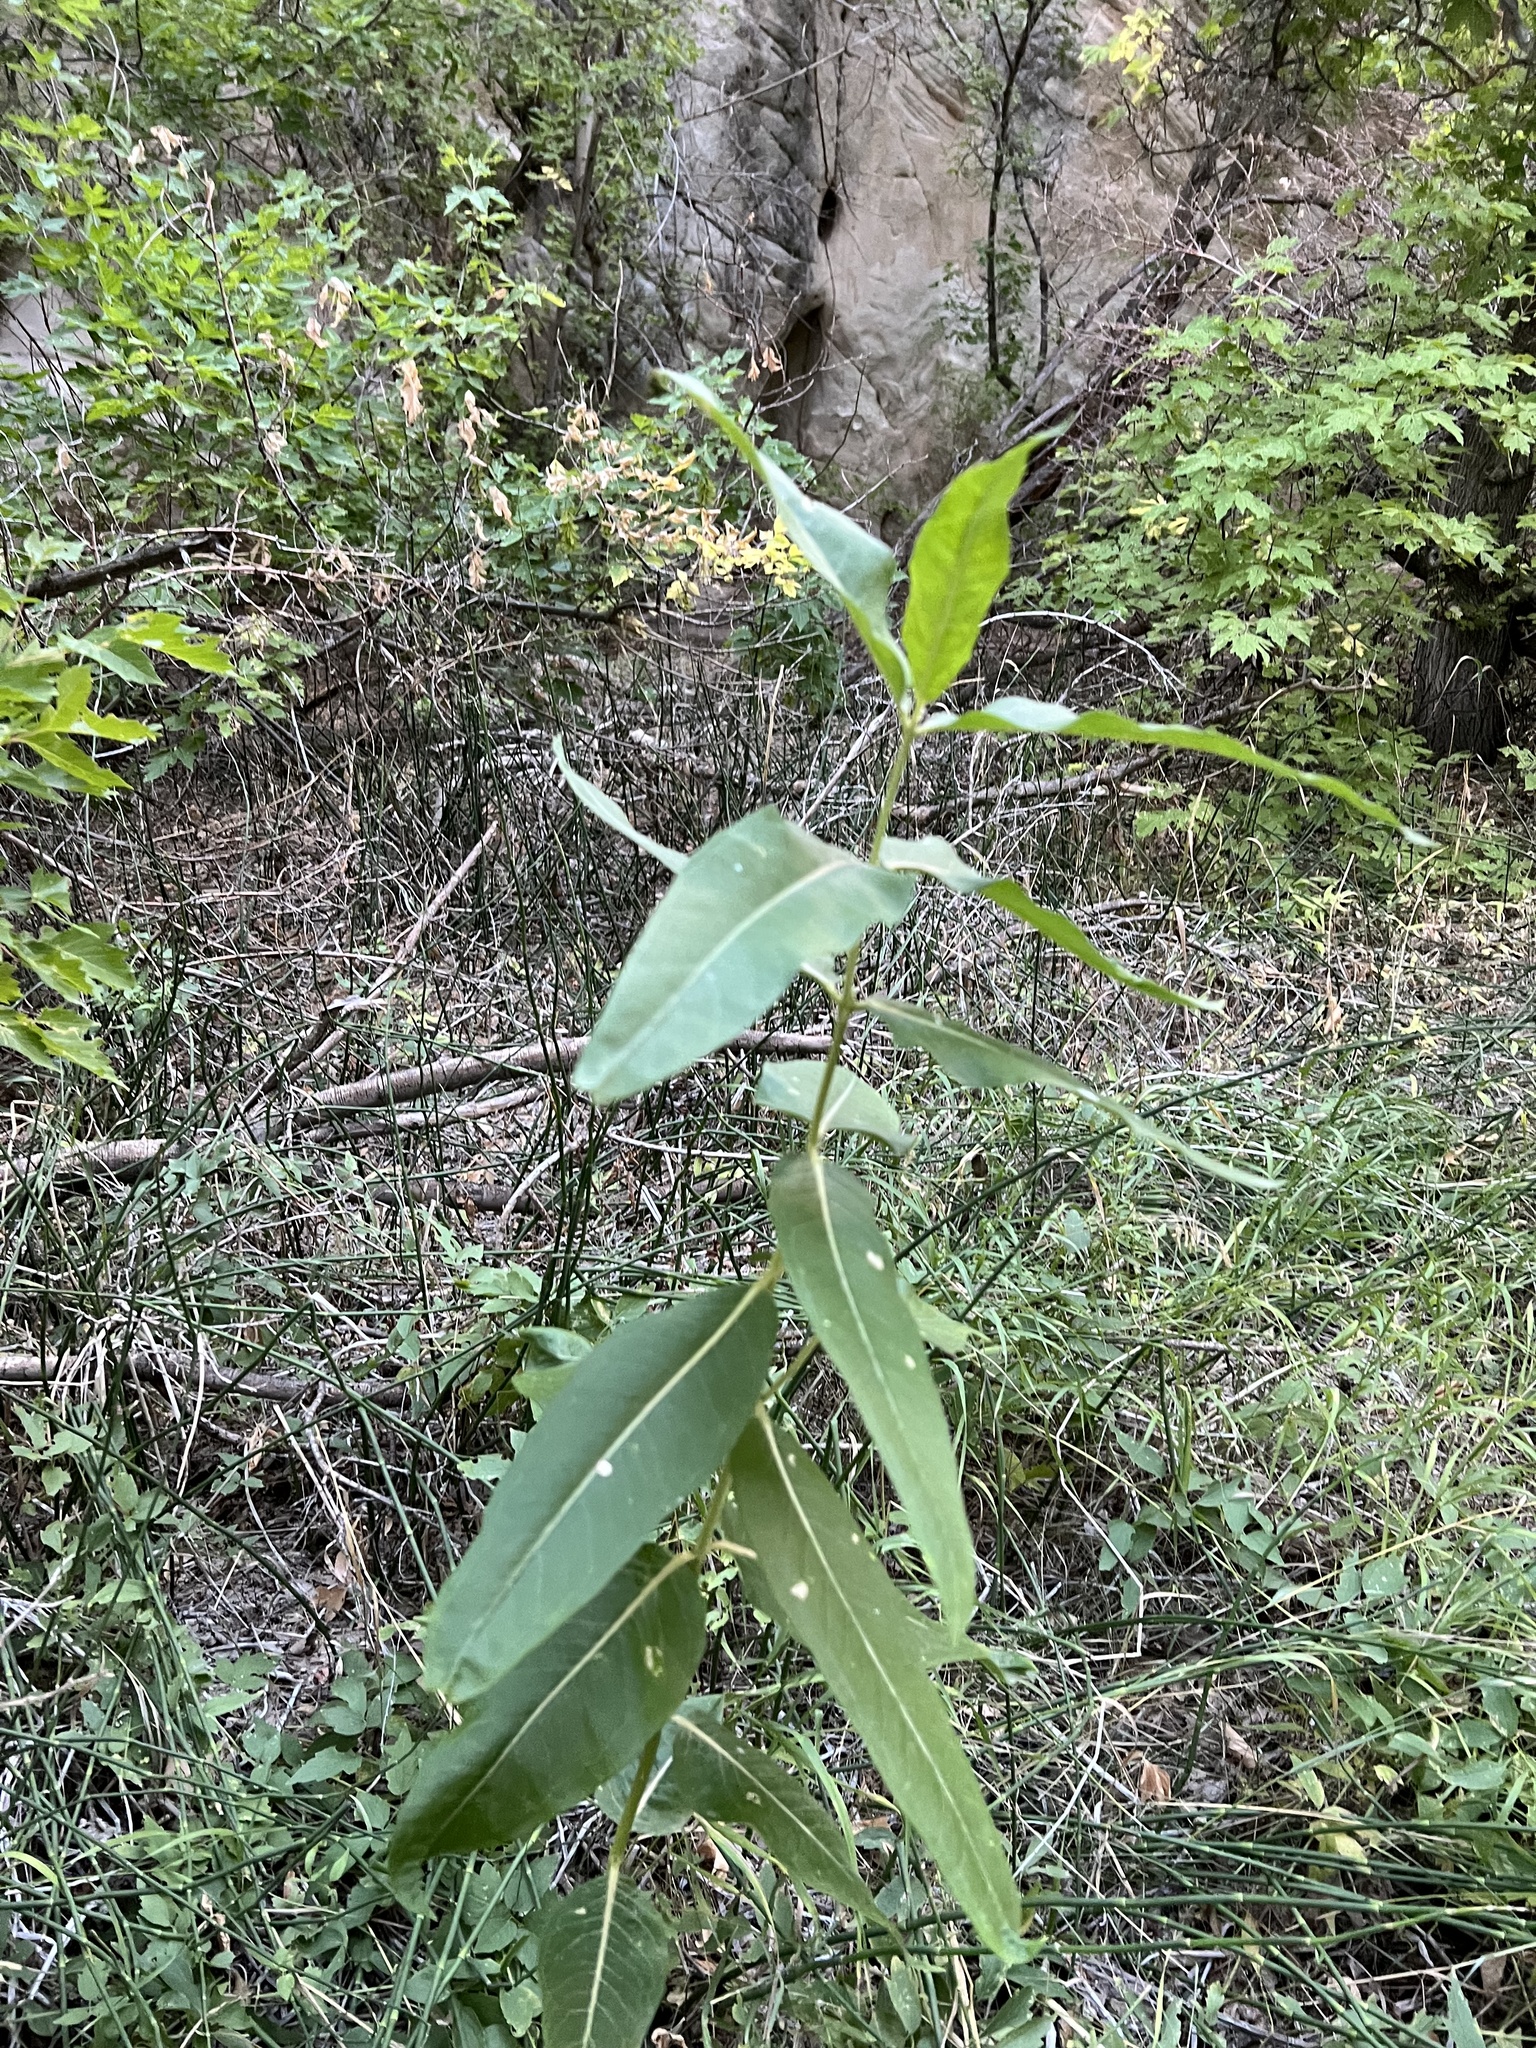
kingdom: Plantae
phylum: Tracheophyta
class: Magnoliopsida
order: Gentianales
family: Apocynaceae
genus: Asclepias
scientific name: Asclepias speciosa
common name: Showy milkweed
